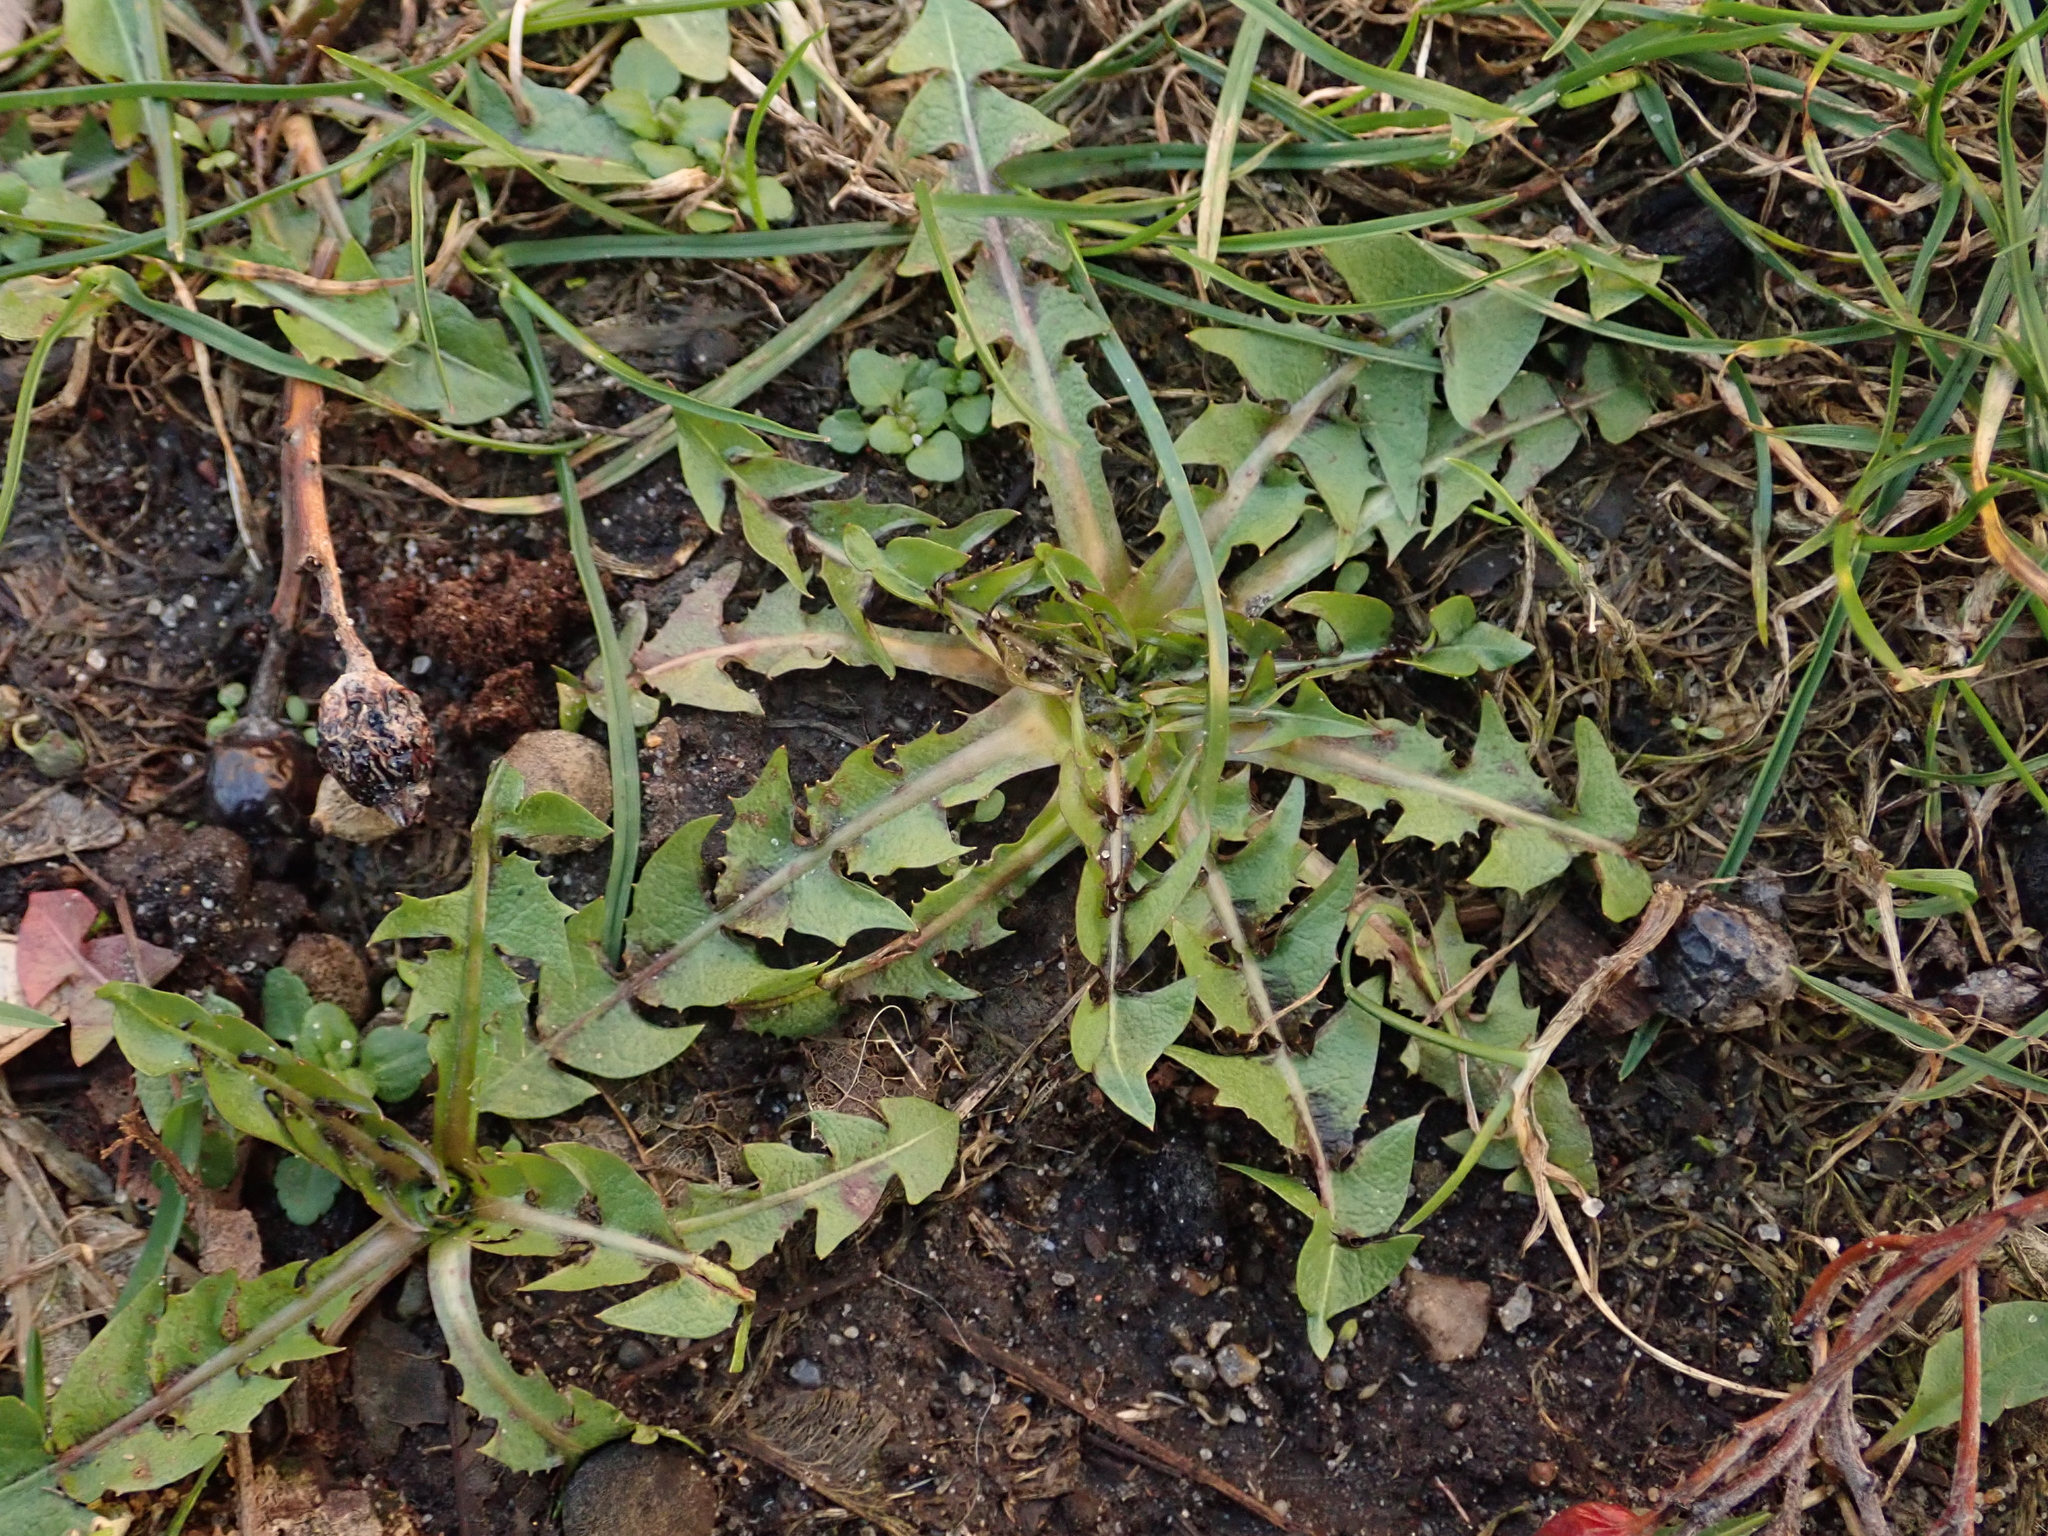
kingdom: Plantae
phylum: Tracheophyta
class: Magnoliopsida
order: Asterales
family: Asteraceae
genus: Taraxacum
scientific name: Taraxacum officinale
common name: Common dandelion
